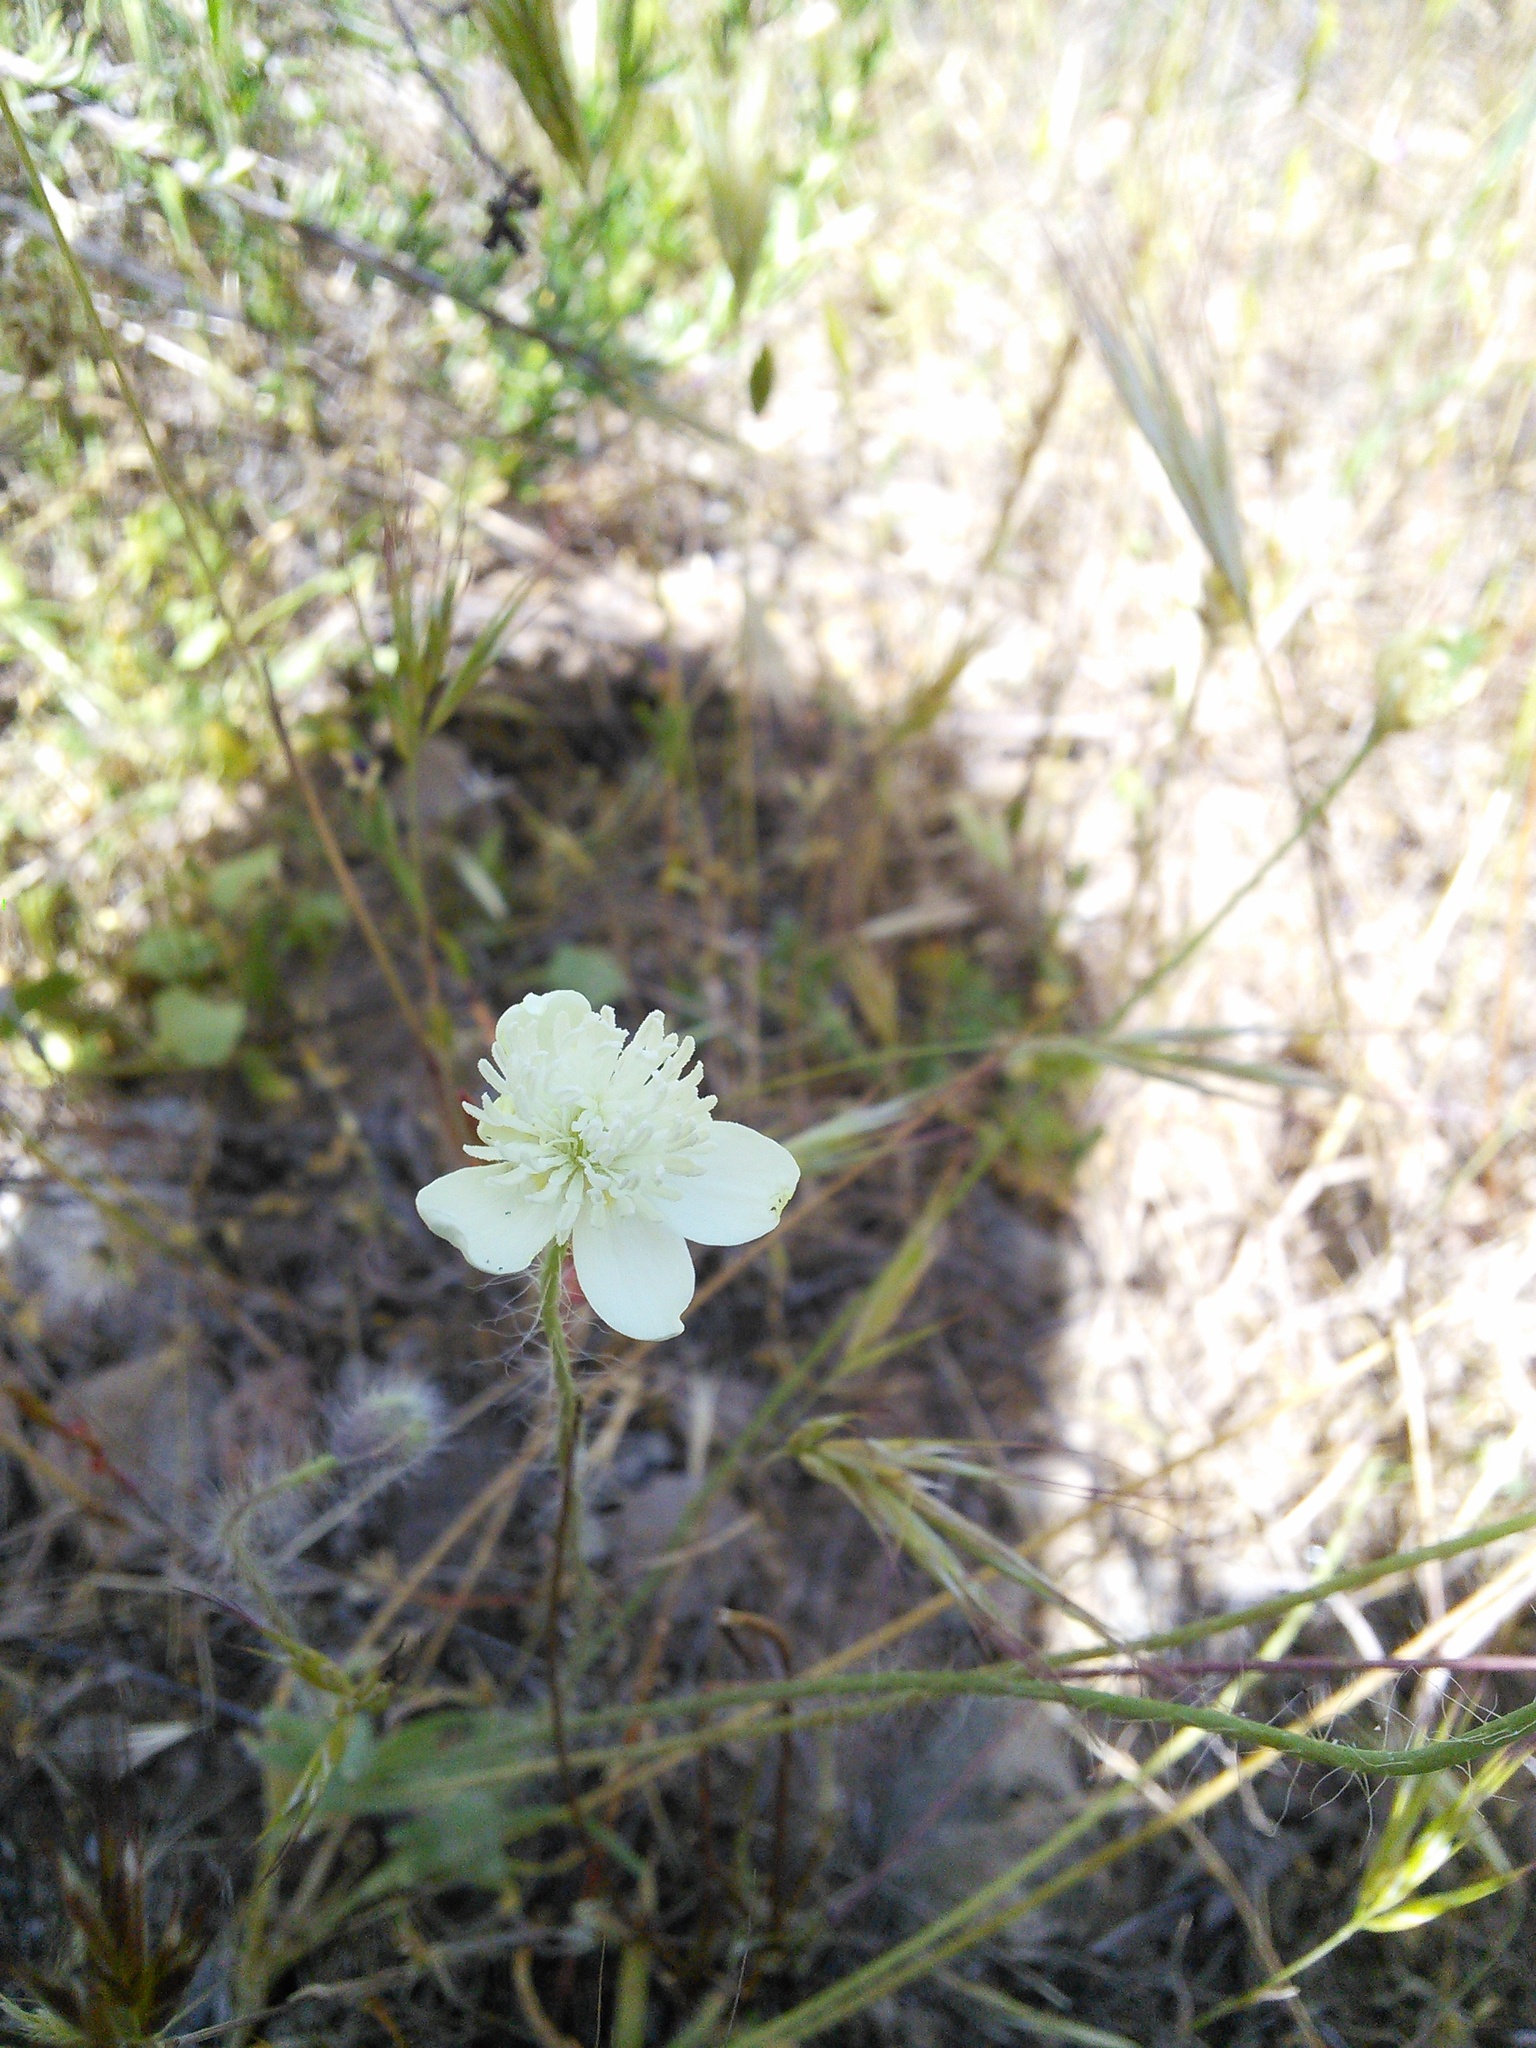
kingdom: Plantae
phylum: Tracheophyta
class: Magnoliopsida
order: Ranunculales
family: Papaveraceae
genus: Platystemon
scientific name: Platystemon californicus
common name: Cream-cups
